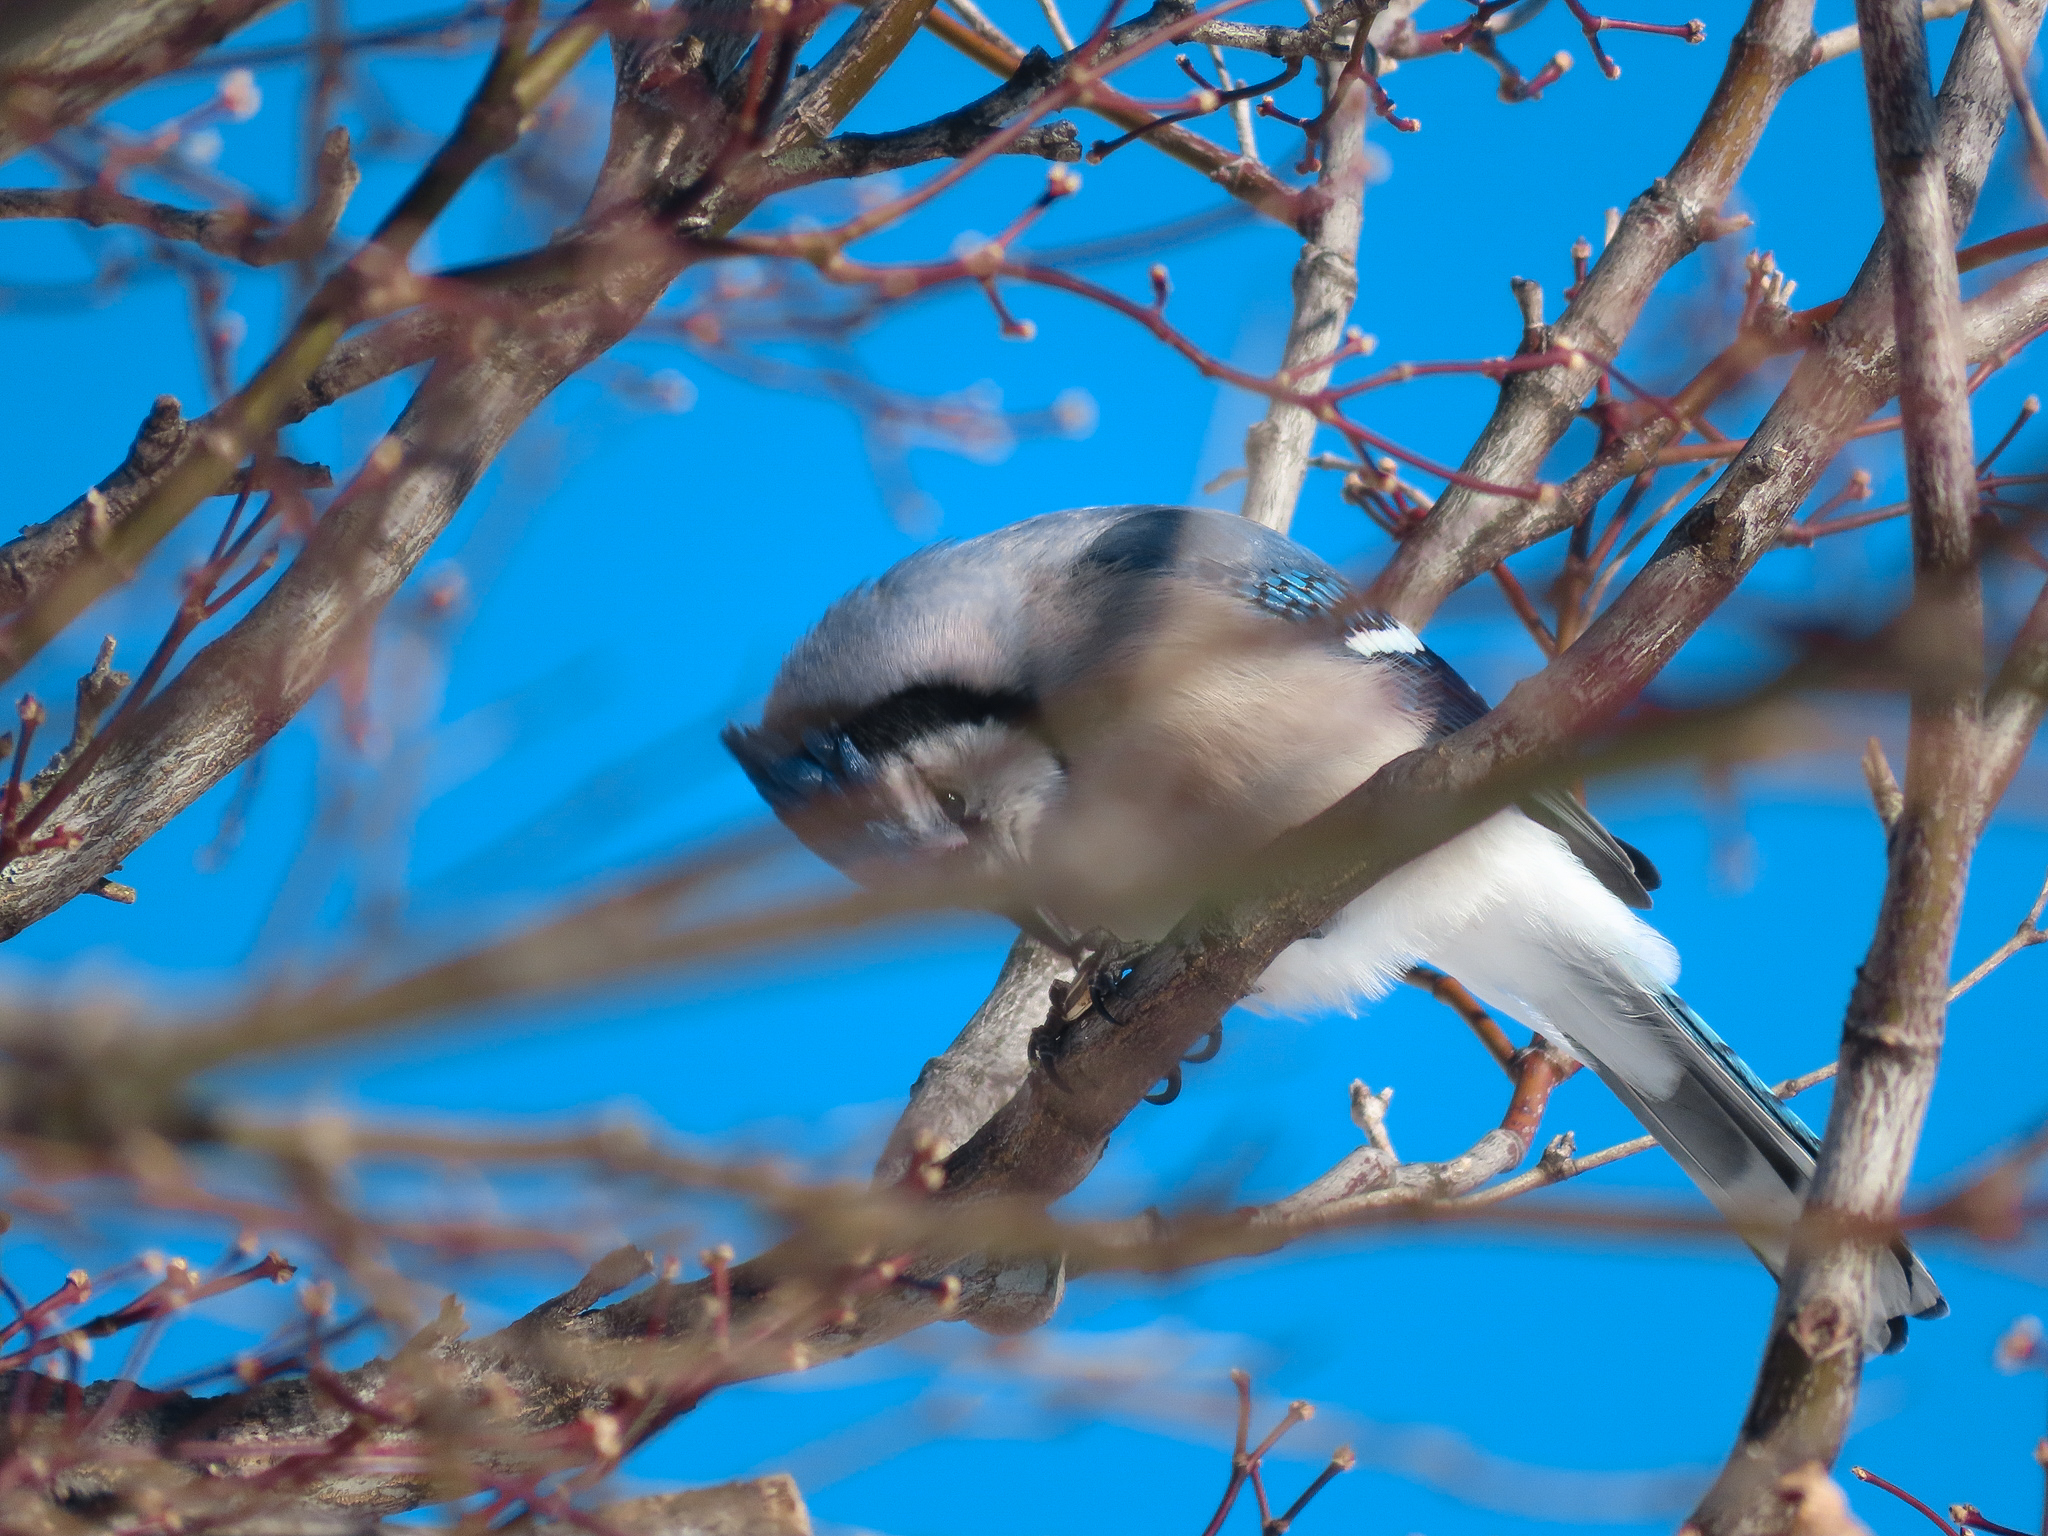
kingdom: Animalia
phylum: Chordata
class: Aves
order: Passeriformes
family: Corvidae
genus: Cyanocitta
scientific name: Cyanocitta cristata
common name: Blue jay
